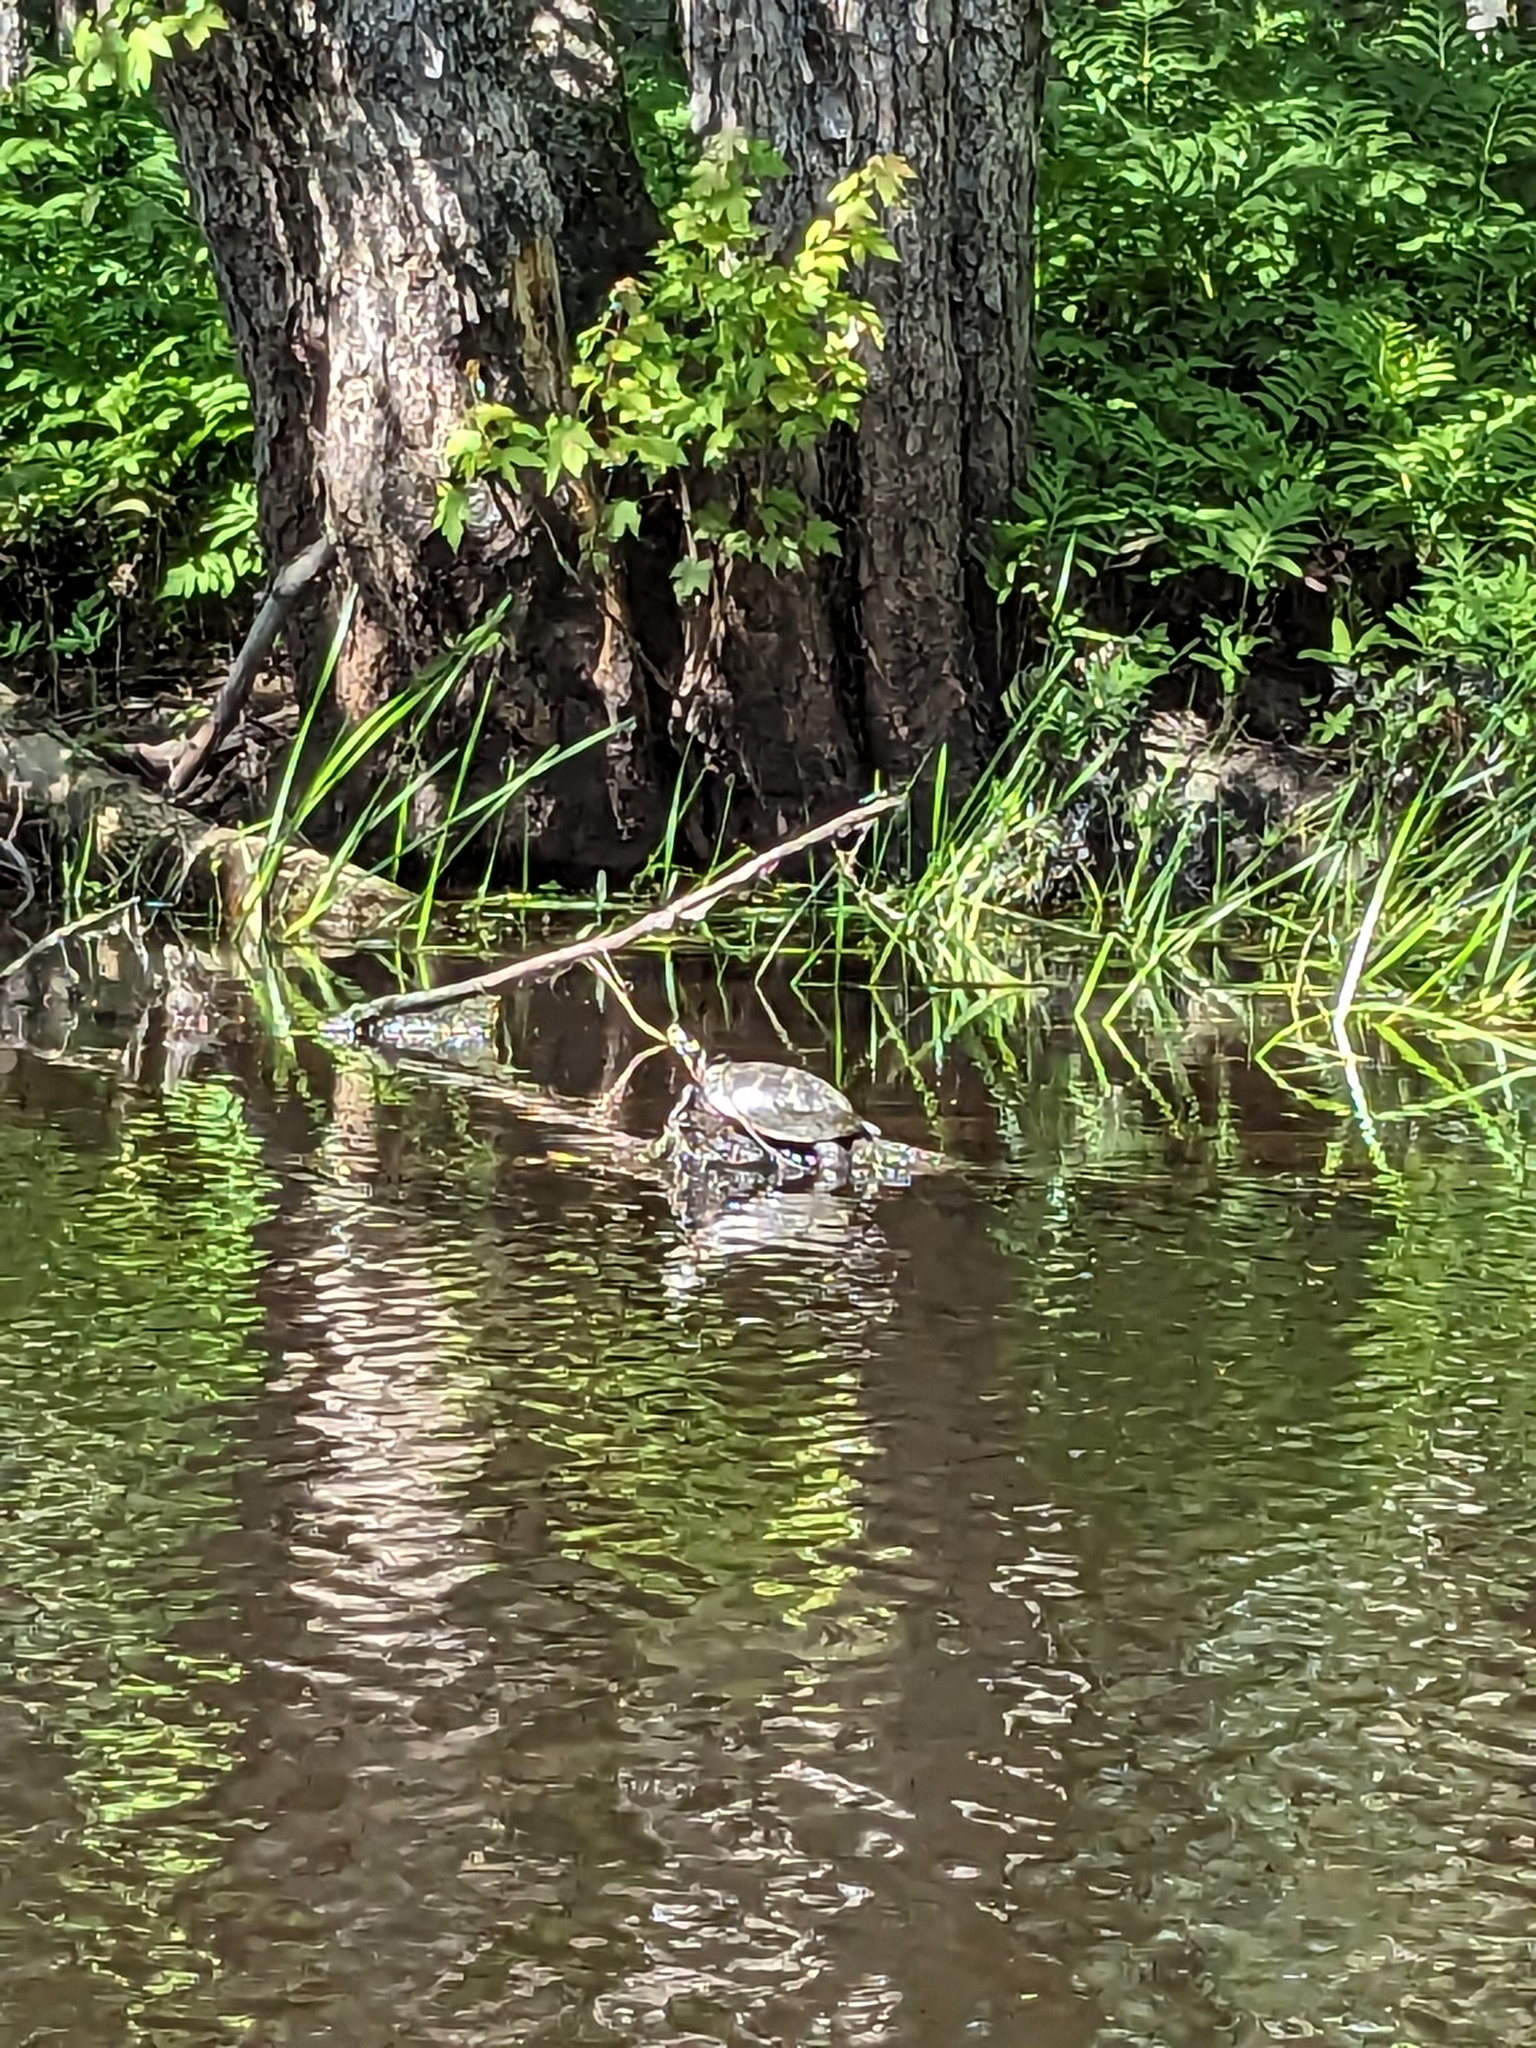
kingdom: Animalia
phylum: Chordata
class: Testudines
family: Emydidae
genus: Chrysemys
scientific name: Chrysemys picta
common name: Painted turtle
